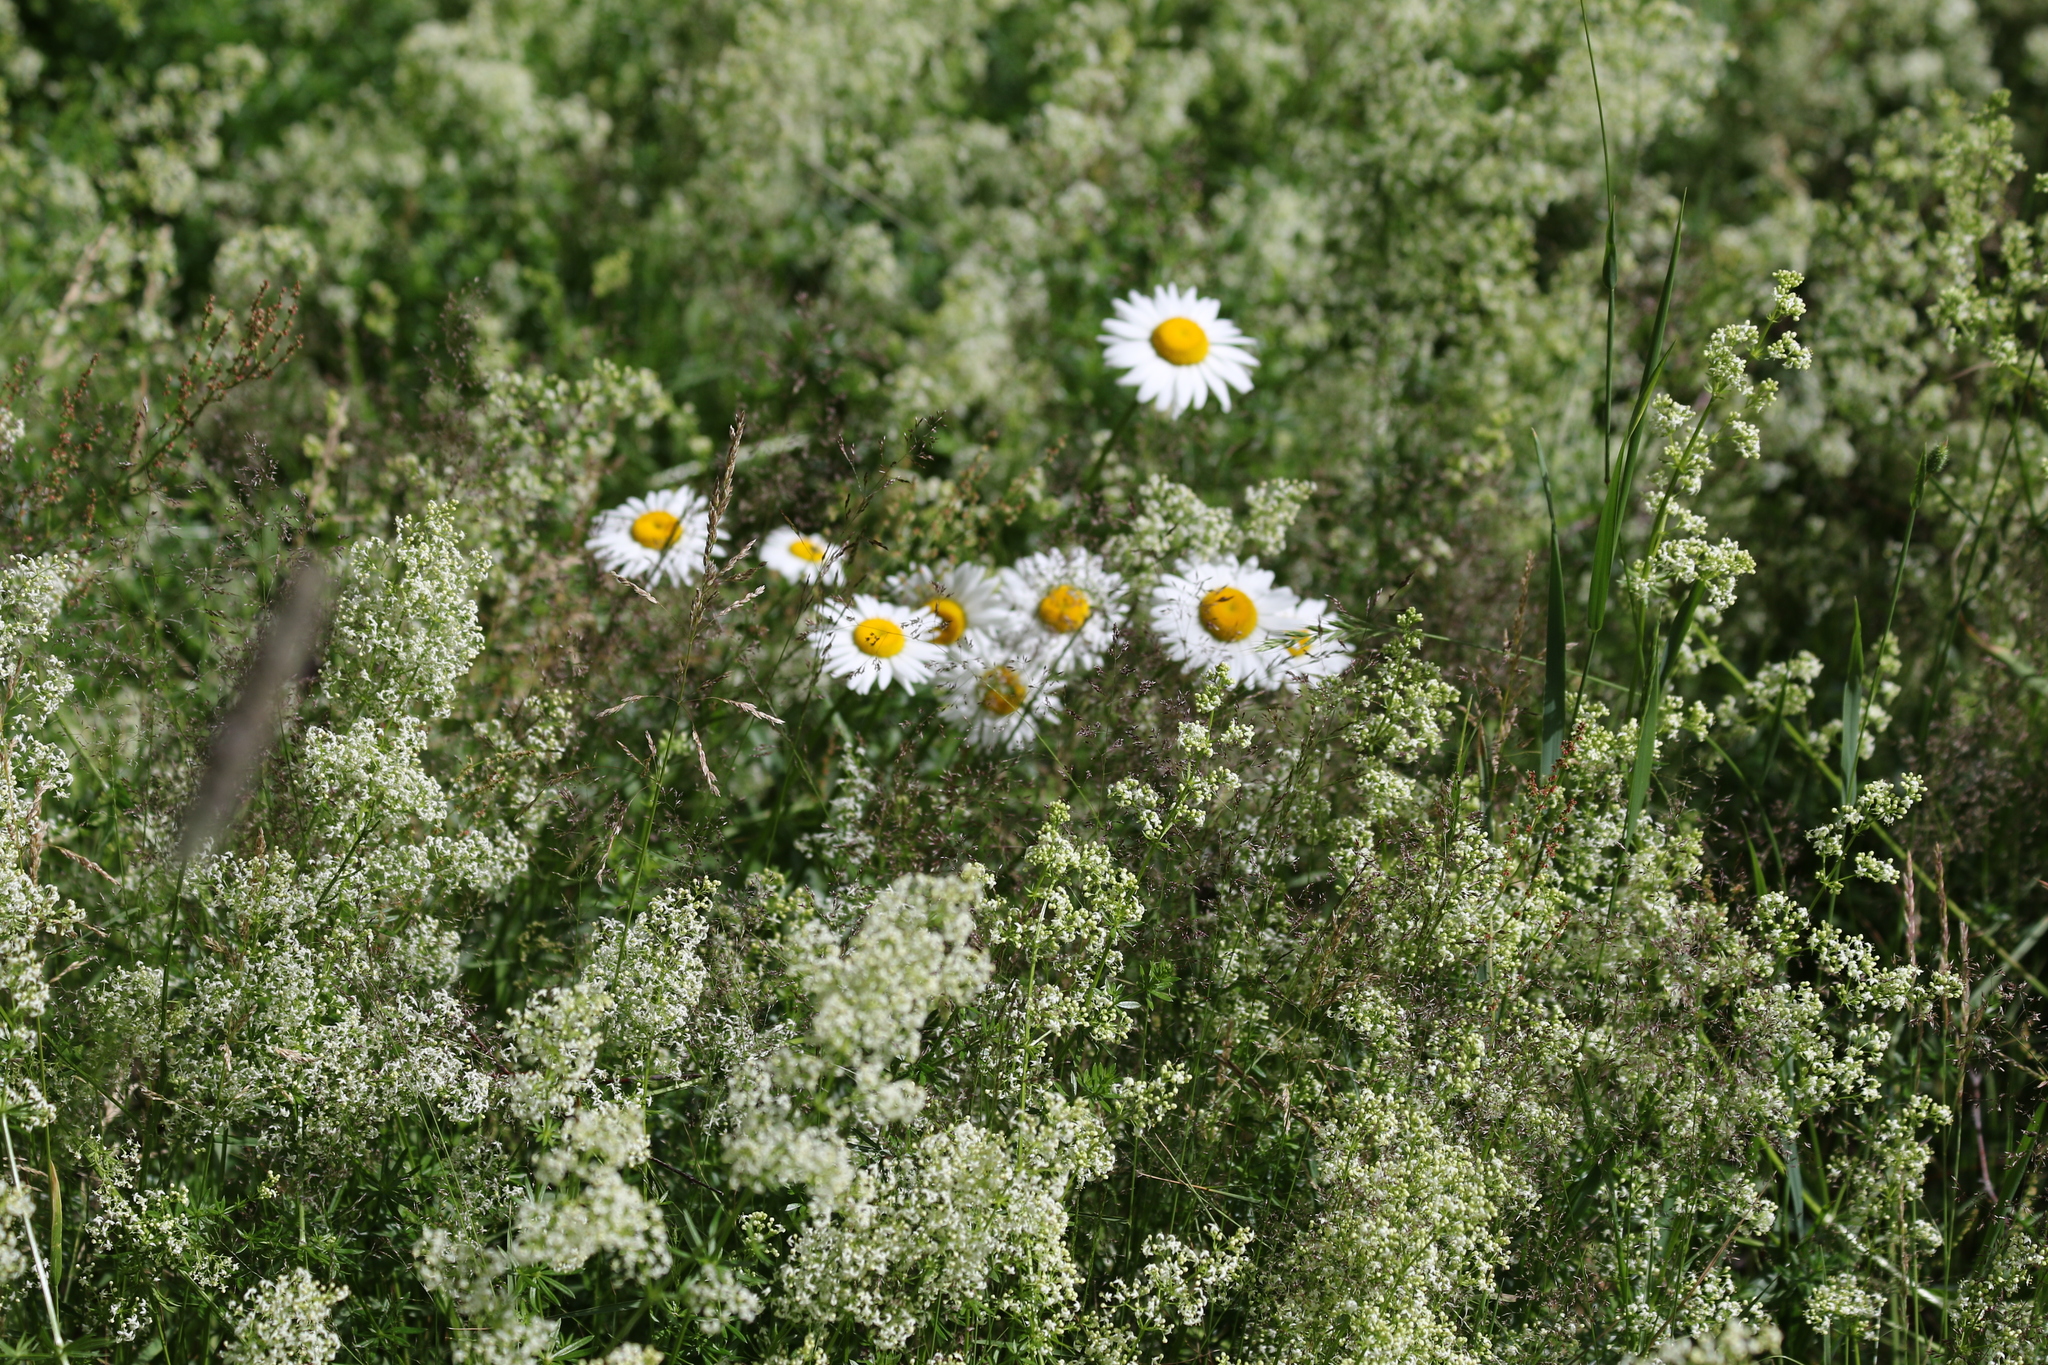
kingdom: Plantae
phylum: Tracheophyta
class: Magnoliopsida
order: Asterales
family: Asteraceae
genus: Leucanthemum
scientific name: Leucanthemum ircutianum
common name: Daisy
